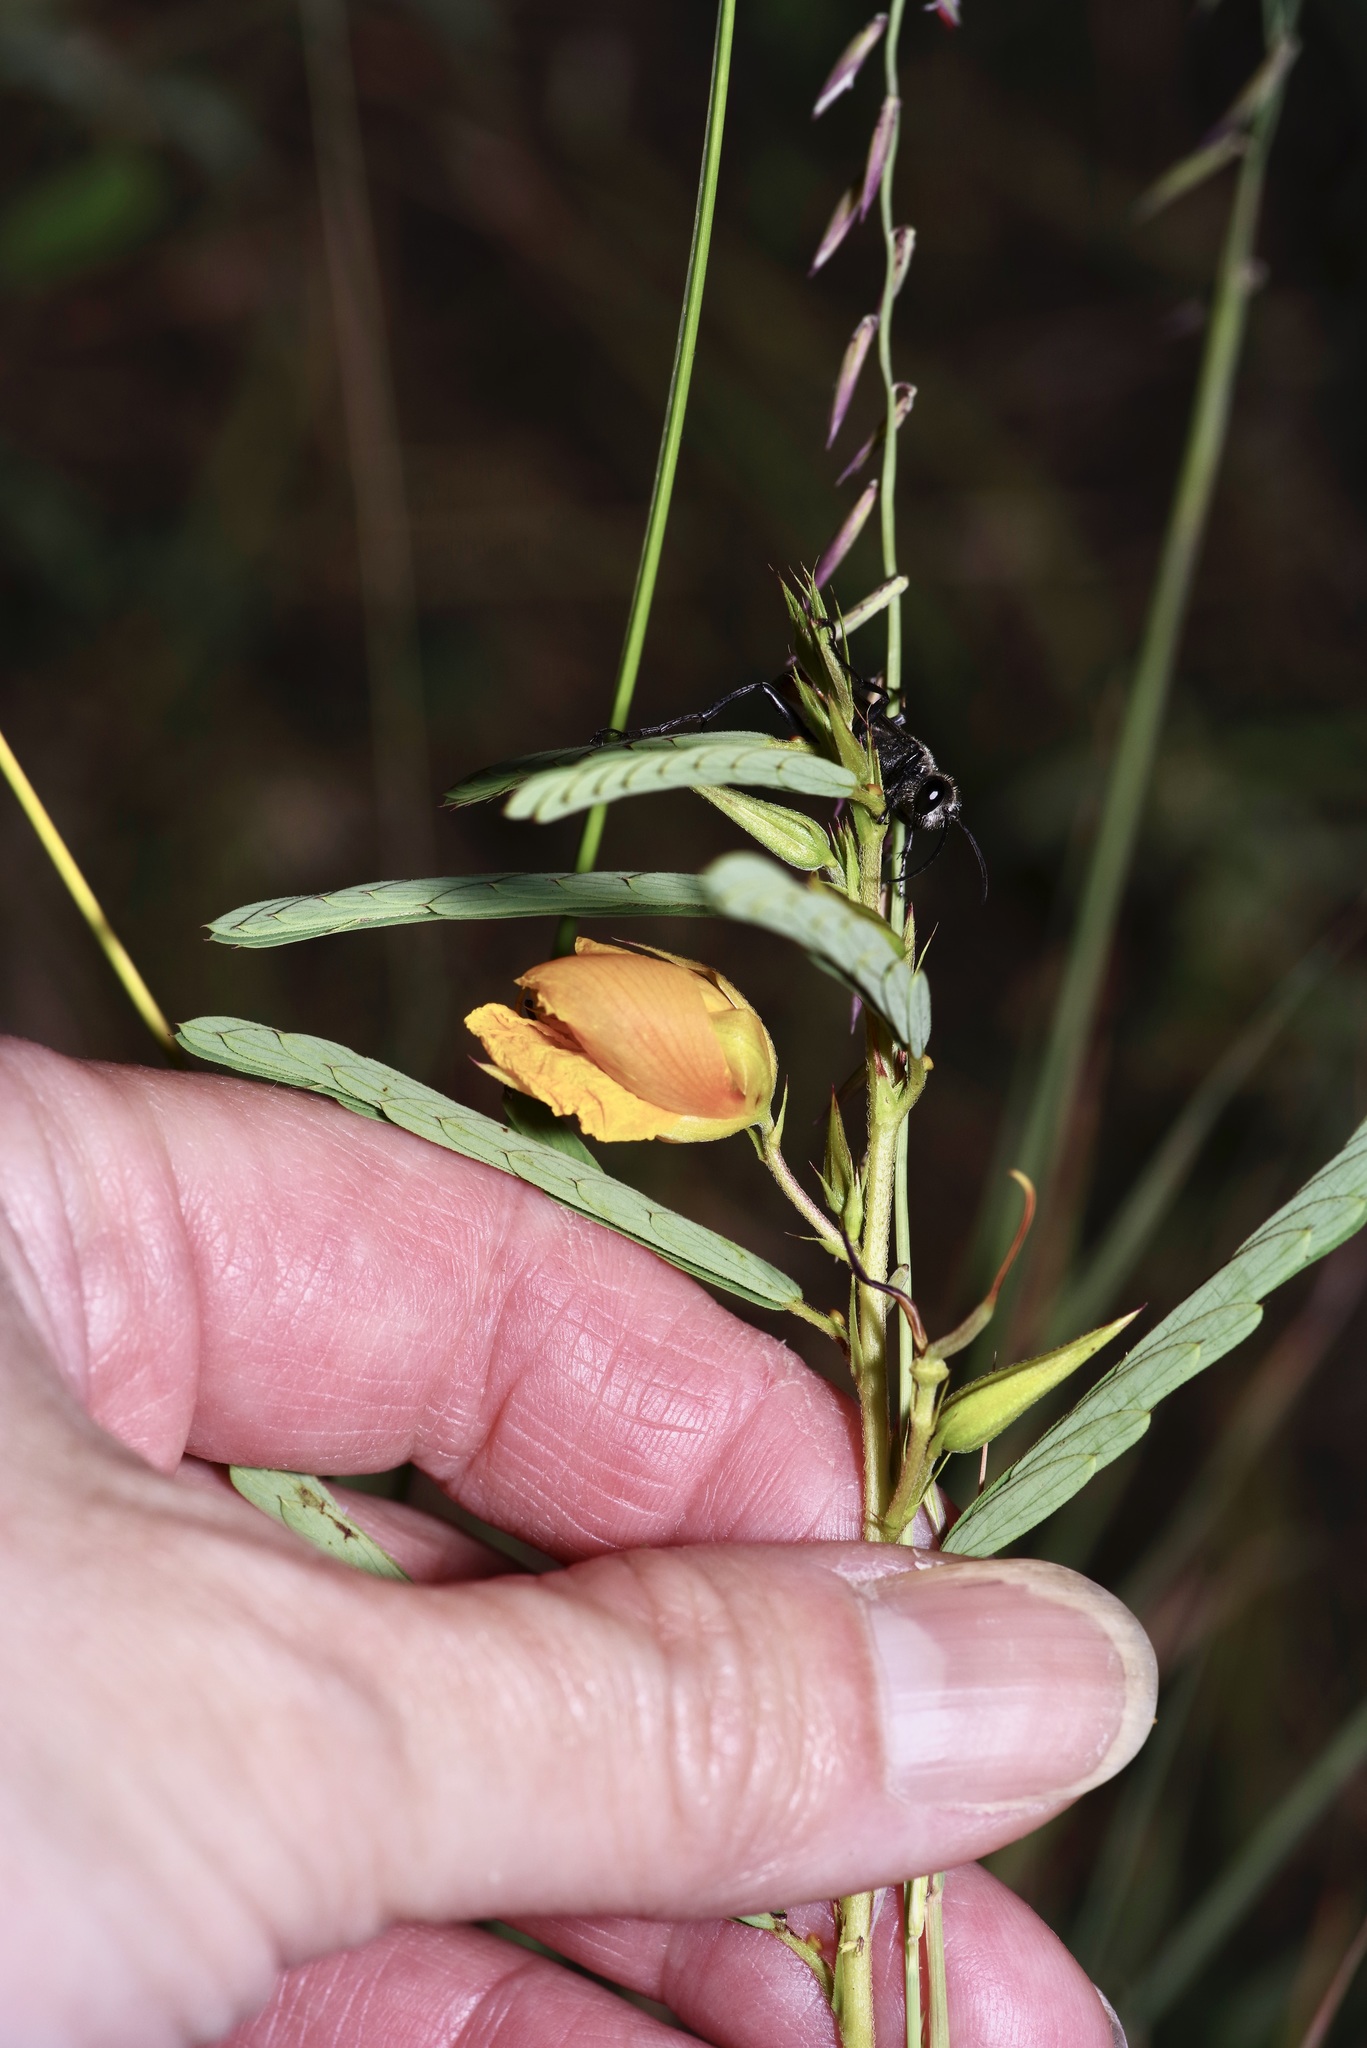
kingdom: Plantae
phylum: Tracheophyta
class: Magnoliopsida
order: Fabales
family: Fabaceae
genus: Chamaecrista
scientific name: Chamaecrista fasciculata
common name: Golden cassia
